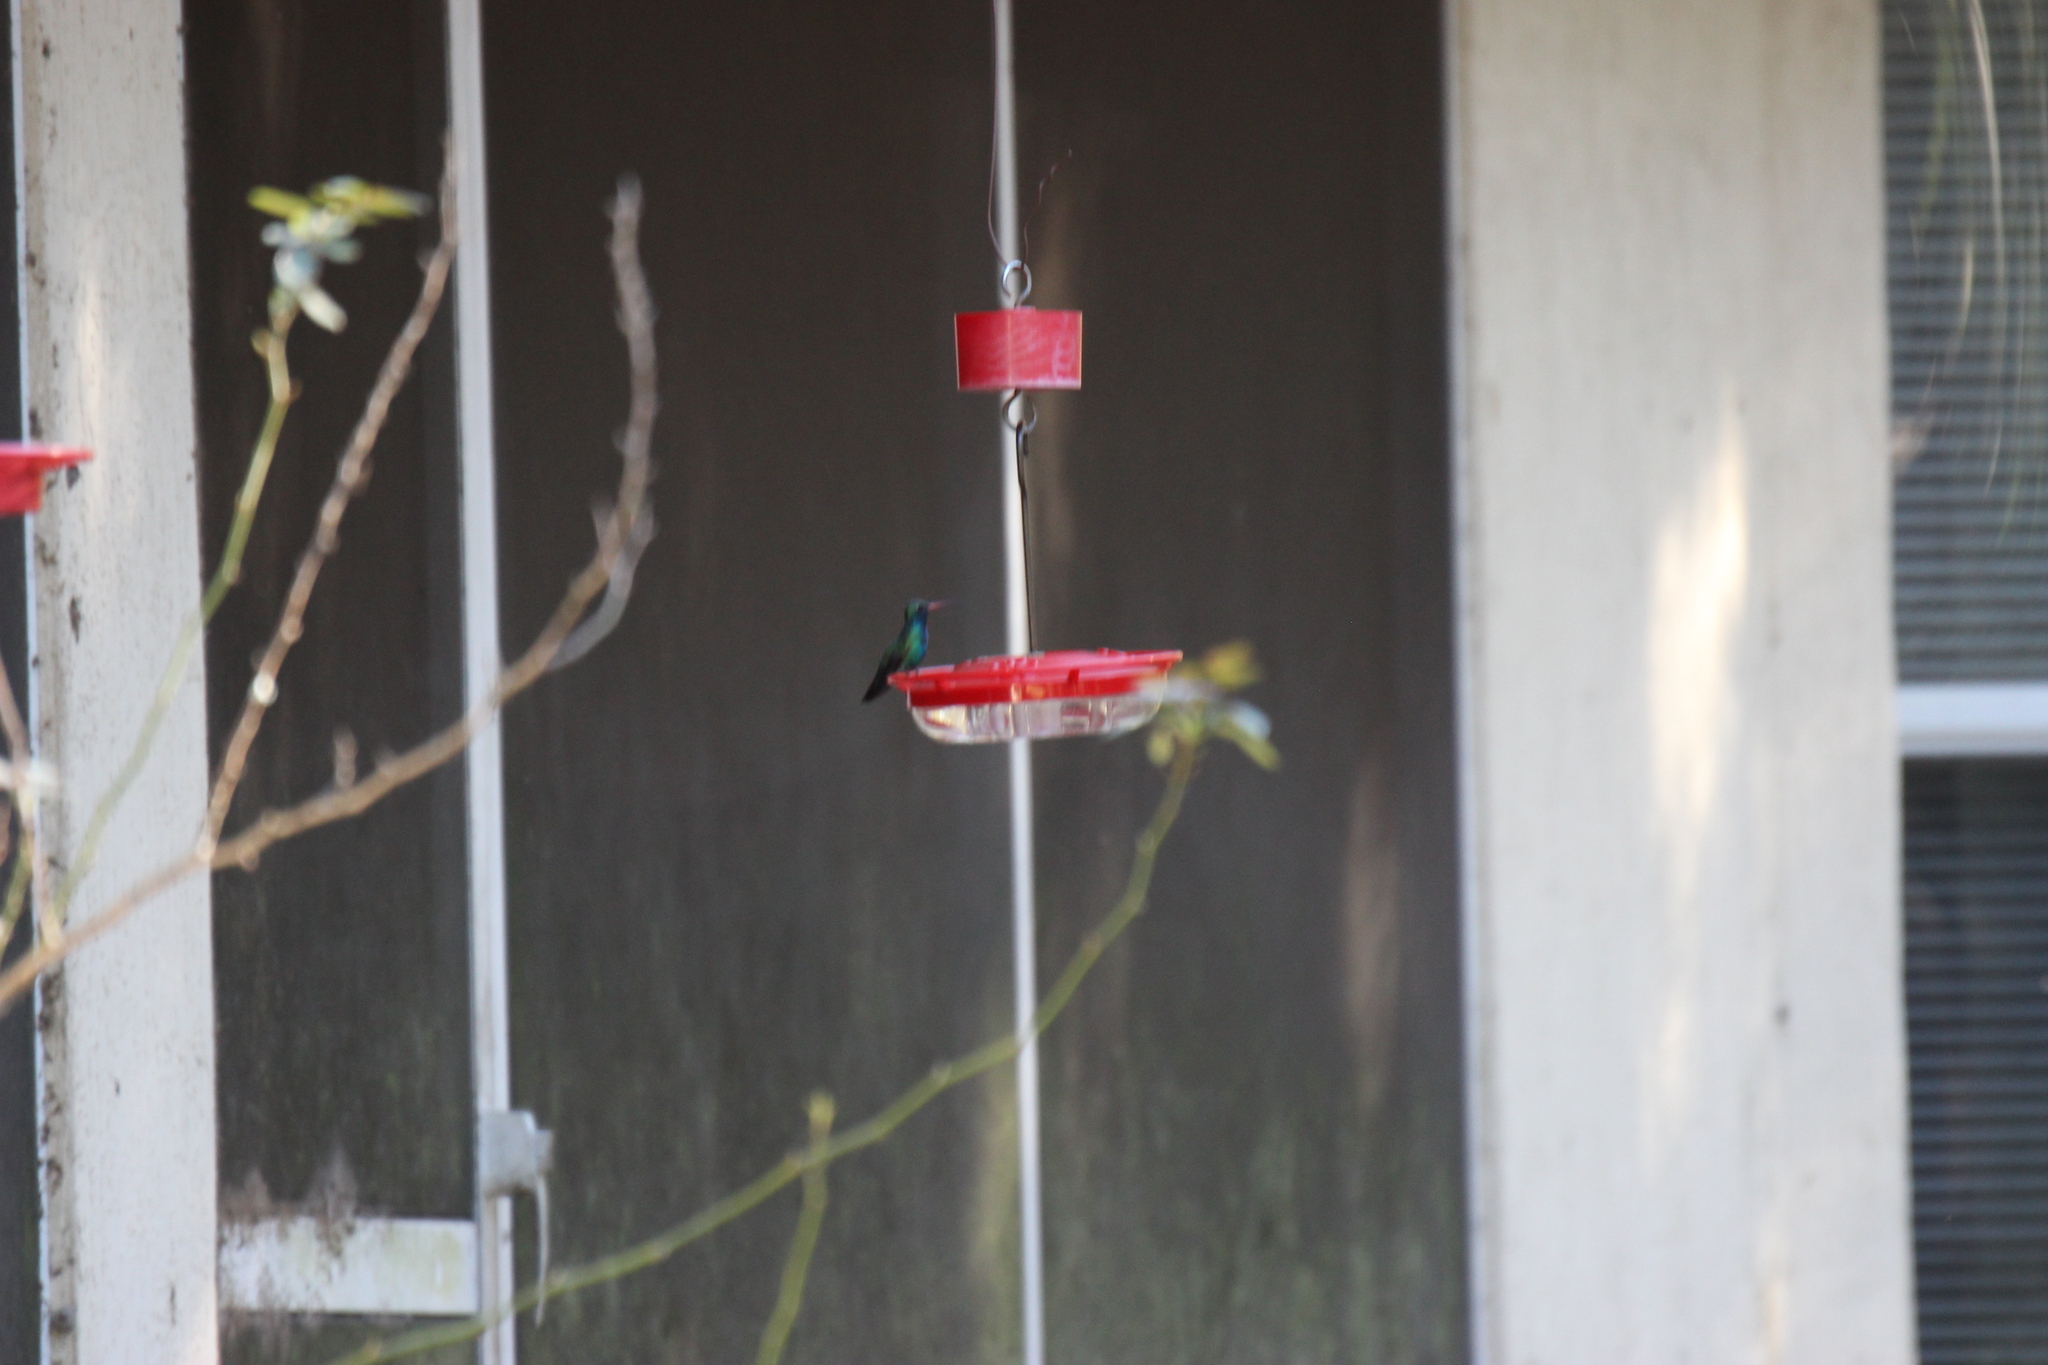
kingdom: Animalia
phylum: Chordata
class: Aves
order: Apodiformes
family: Trochilidae
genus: Cynanthus
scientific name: Cynanthus latirostris
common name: Broad-billed hummingbird
